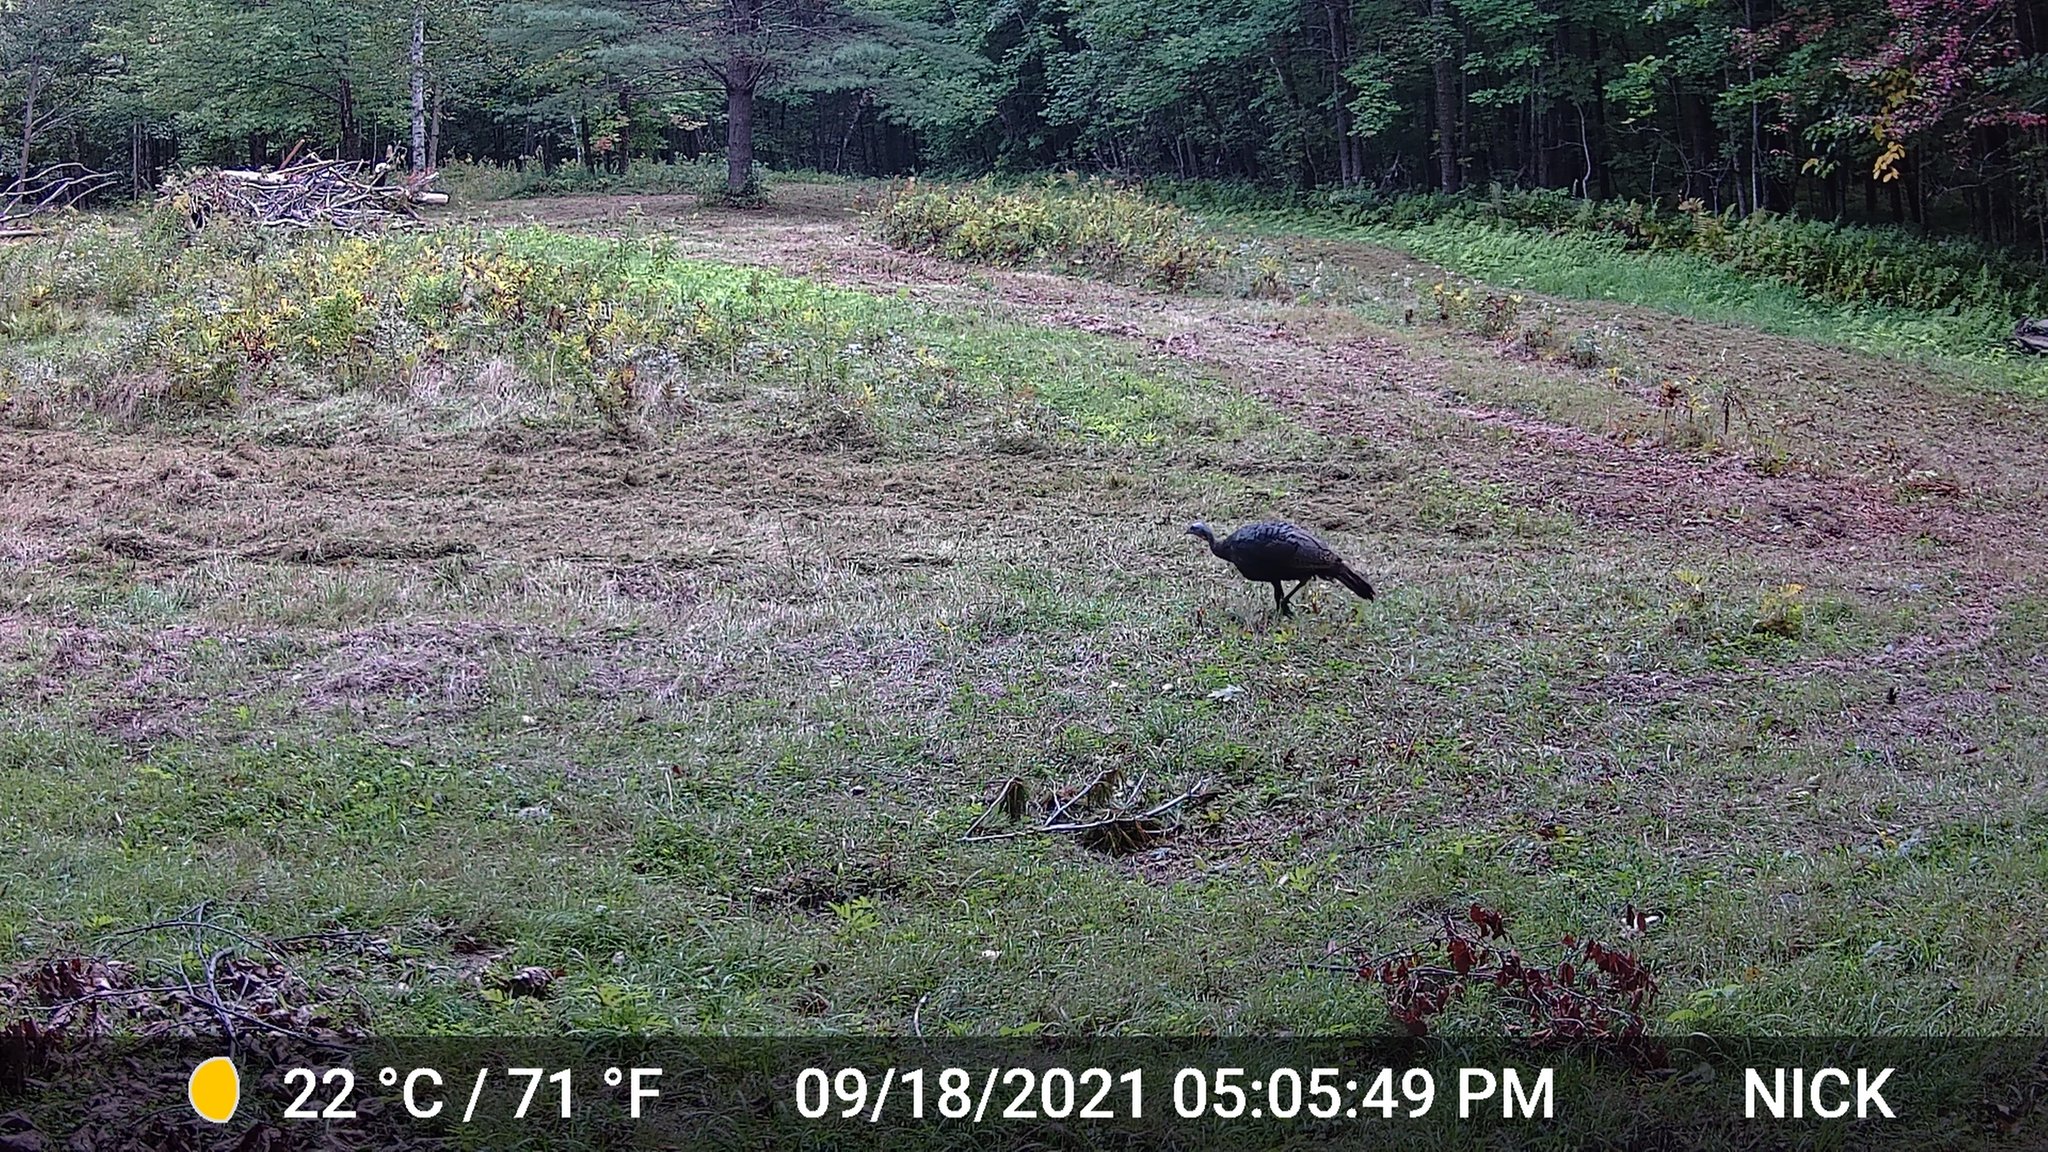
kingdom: Animalia
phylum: Chordata
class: Aves
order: Galliformes
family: Phasianidae
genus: Meleagris
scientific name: Meleagris gallopavo
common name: Wild turkey
